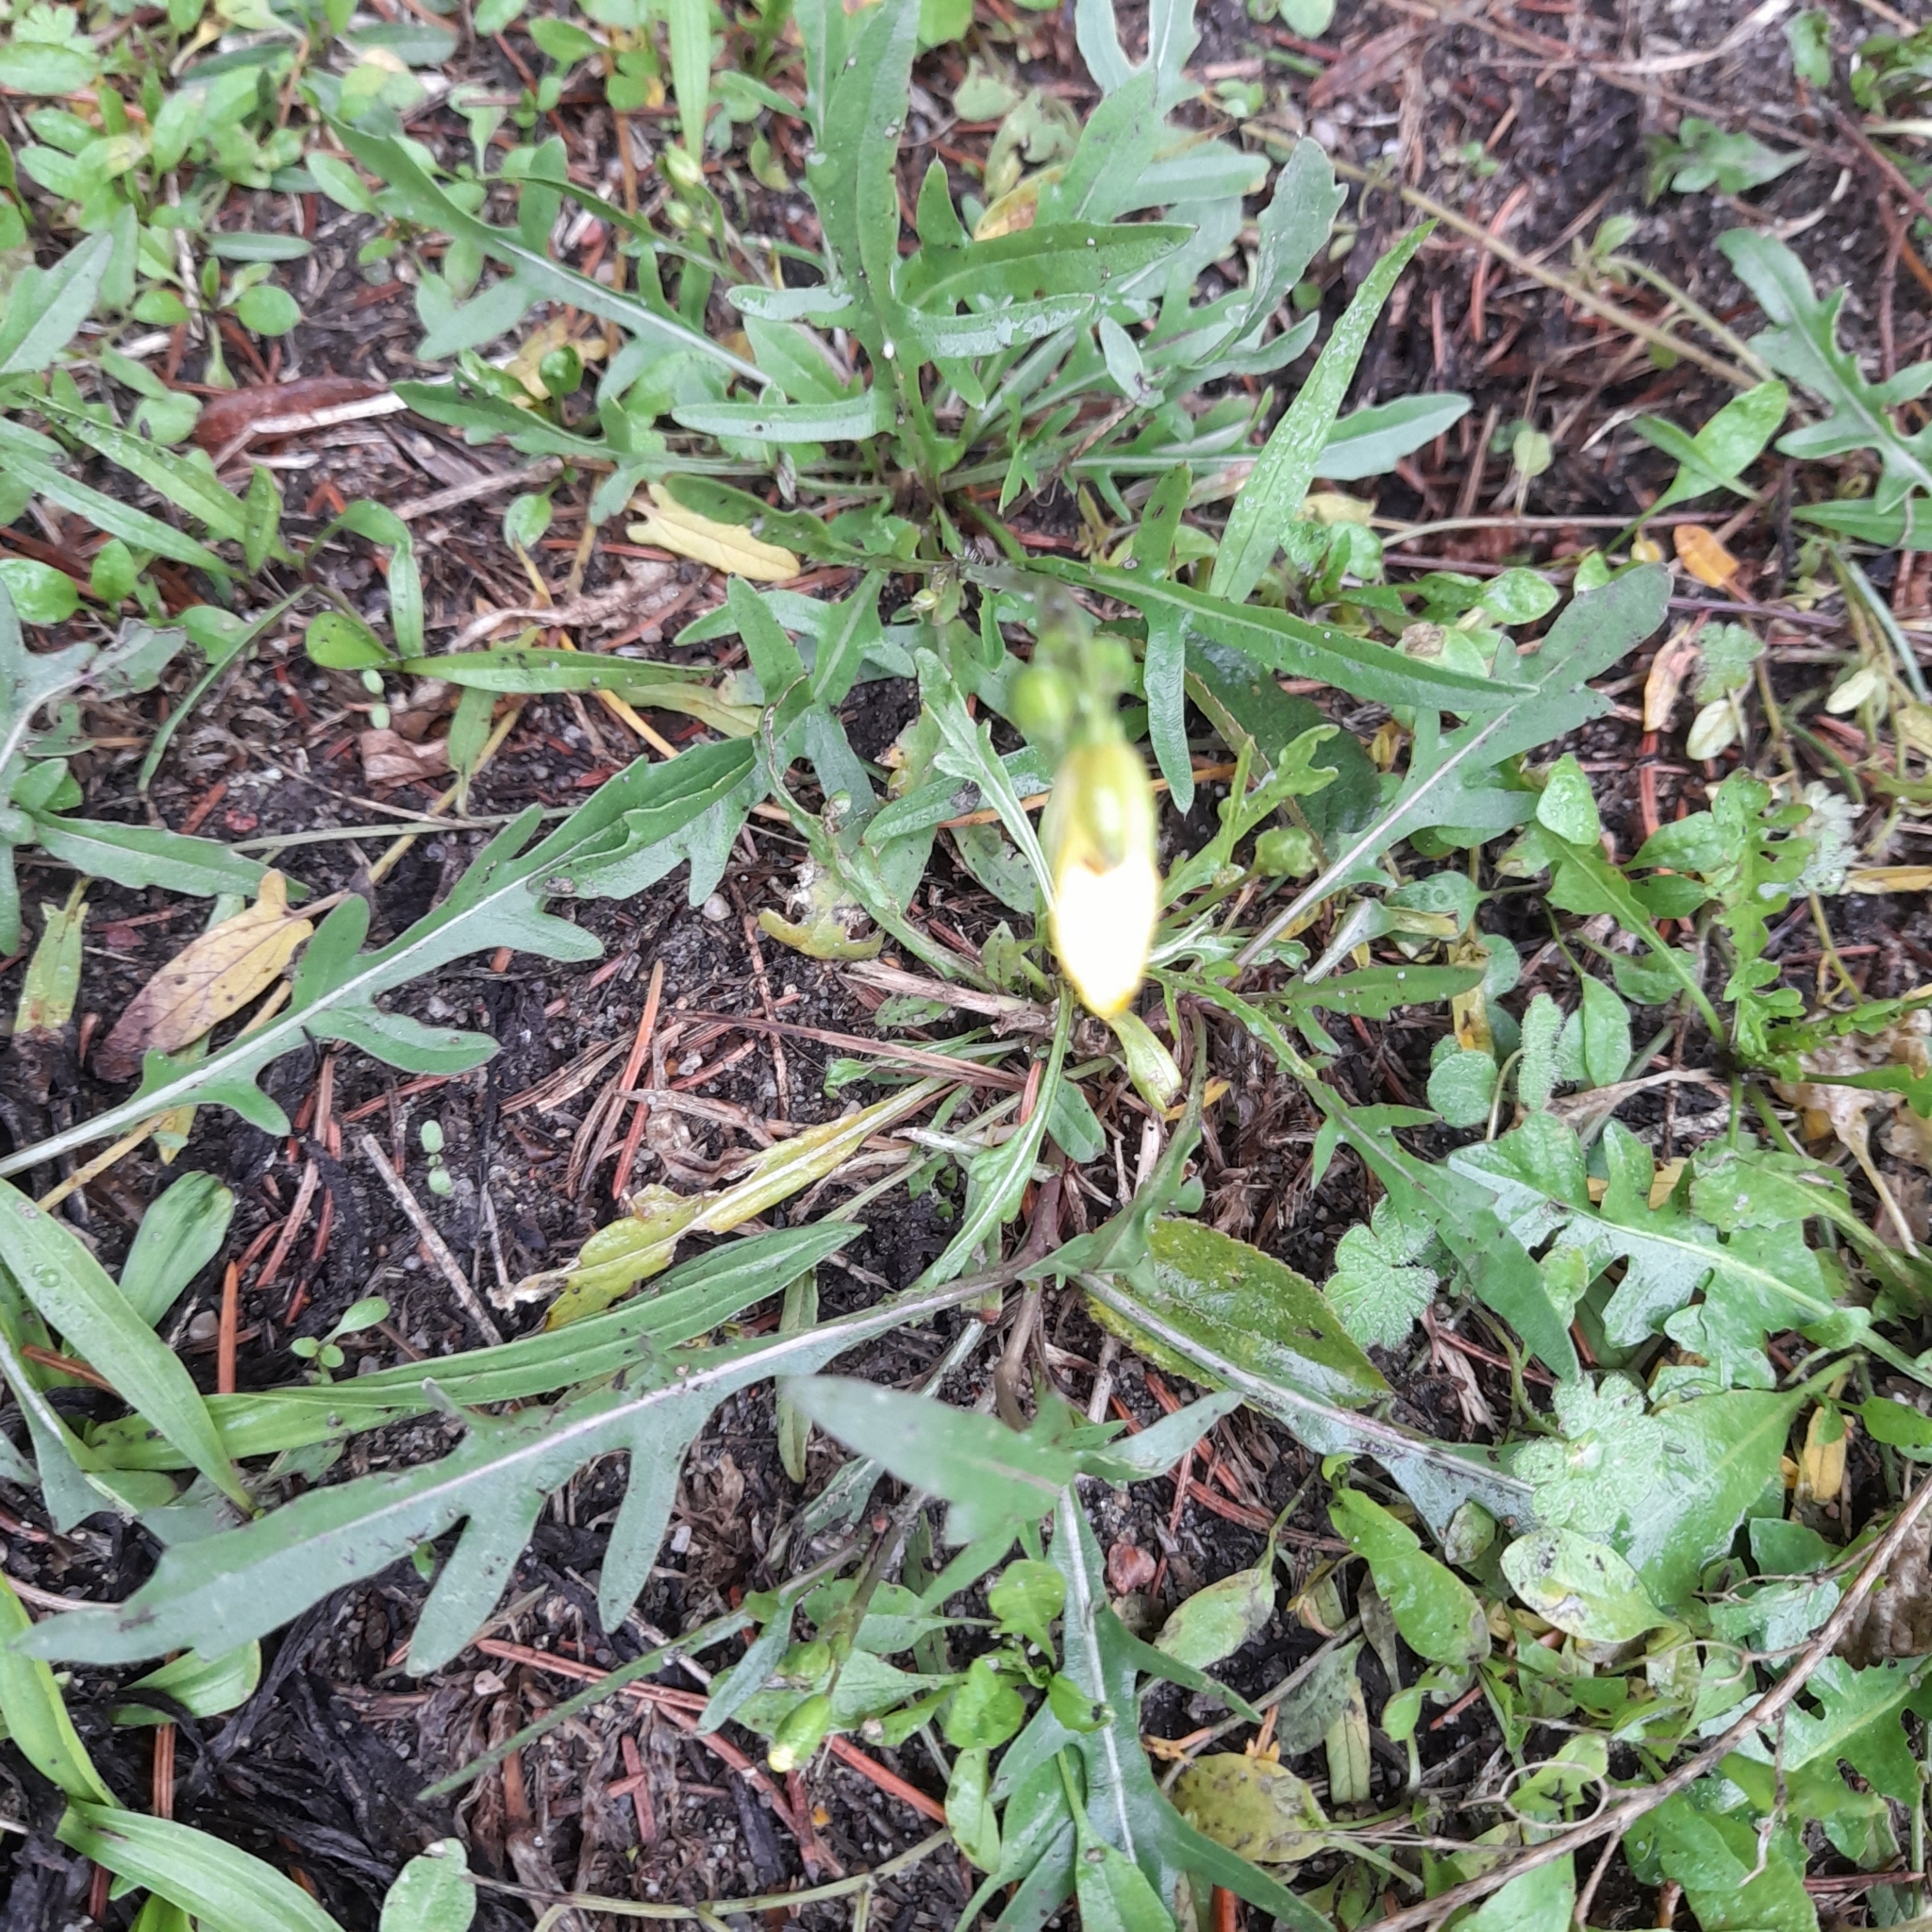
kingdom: Plantae
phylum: Tracheophyta
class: Magnoliopsida
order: Brassicales
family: Brassicaceae
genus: Diplotaxis
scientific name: Diplotaxis tenuifolia
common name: Perennial wall-rocket
